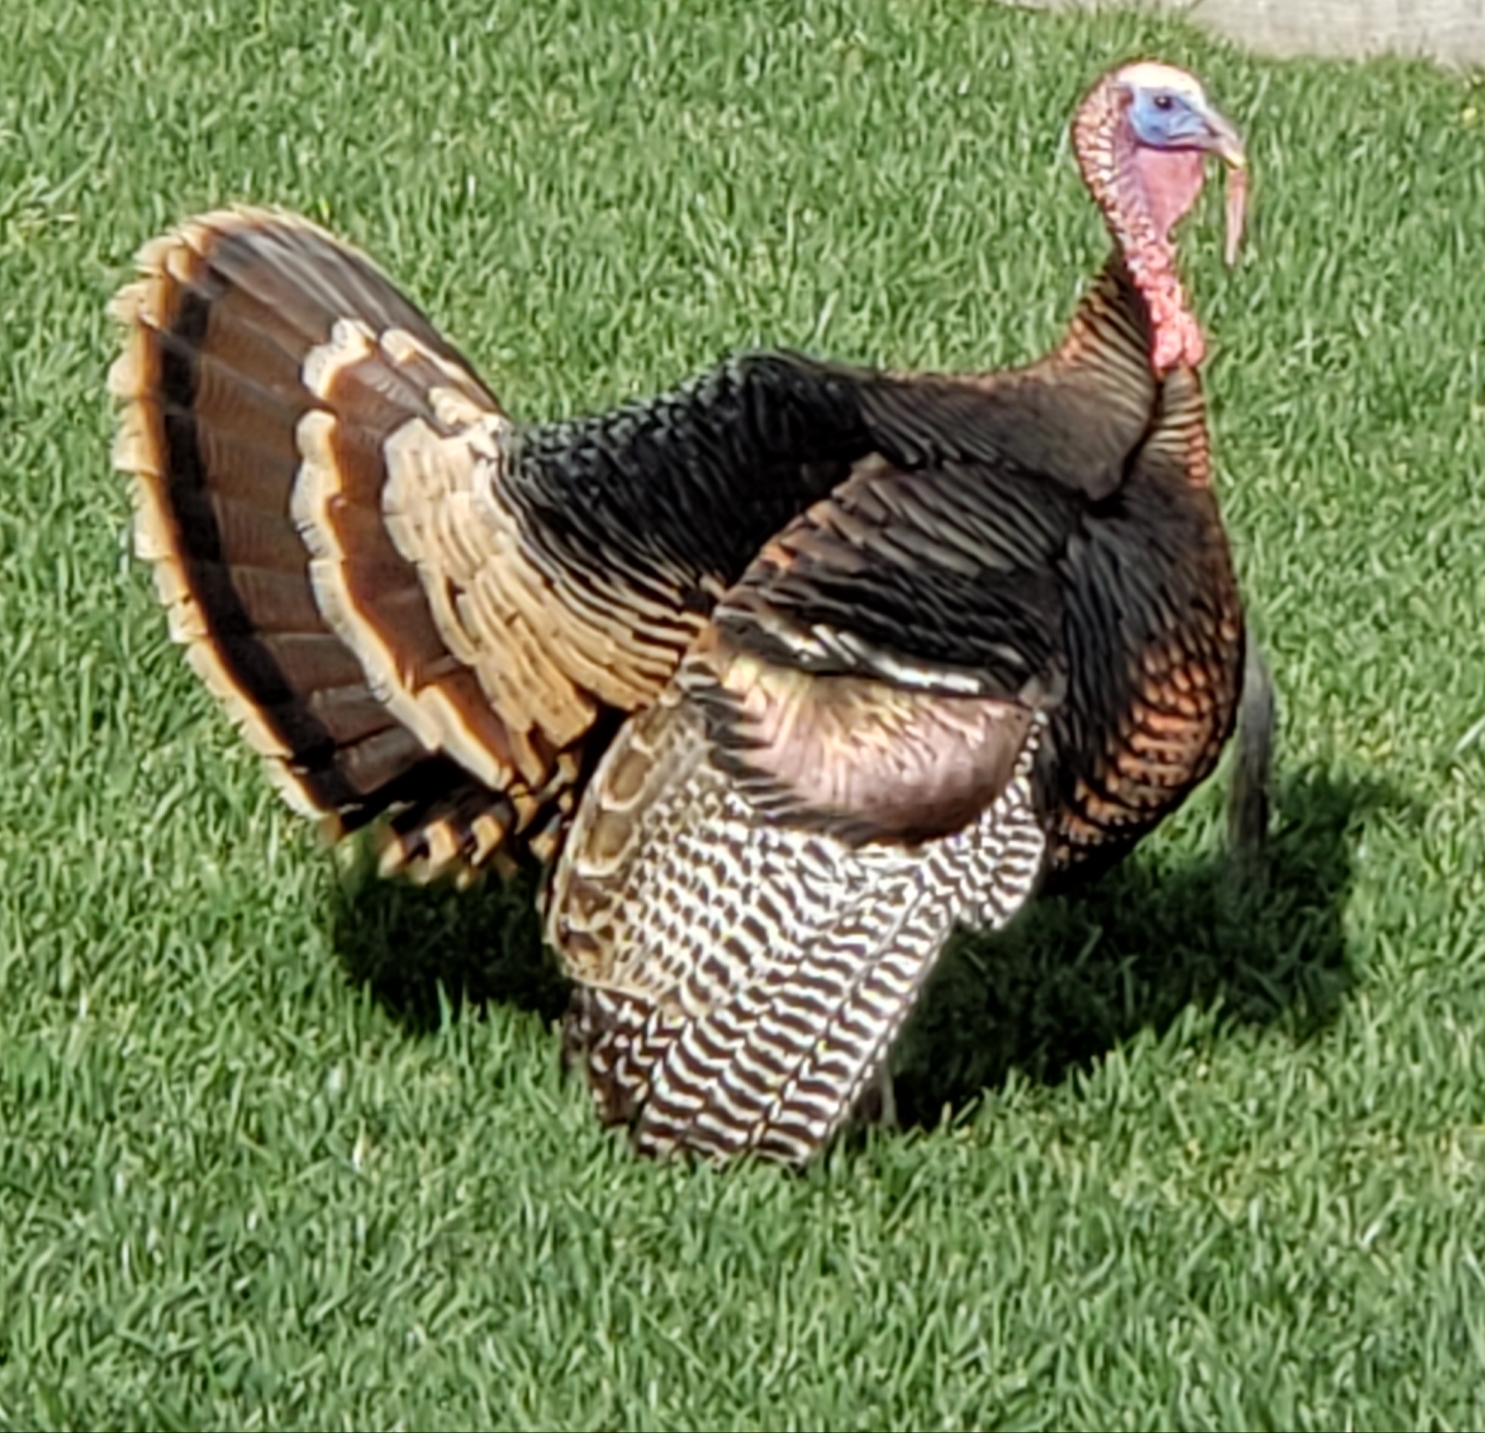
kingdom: Animalia
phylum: Chordata
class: Aves
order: Galliformes
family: Phasianidae
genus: Meleagris
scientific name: Meleagris gallopavo
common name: Wild turkey
